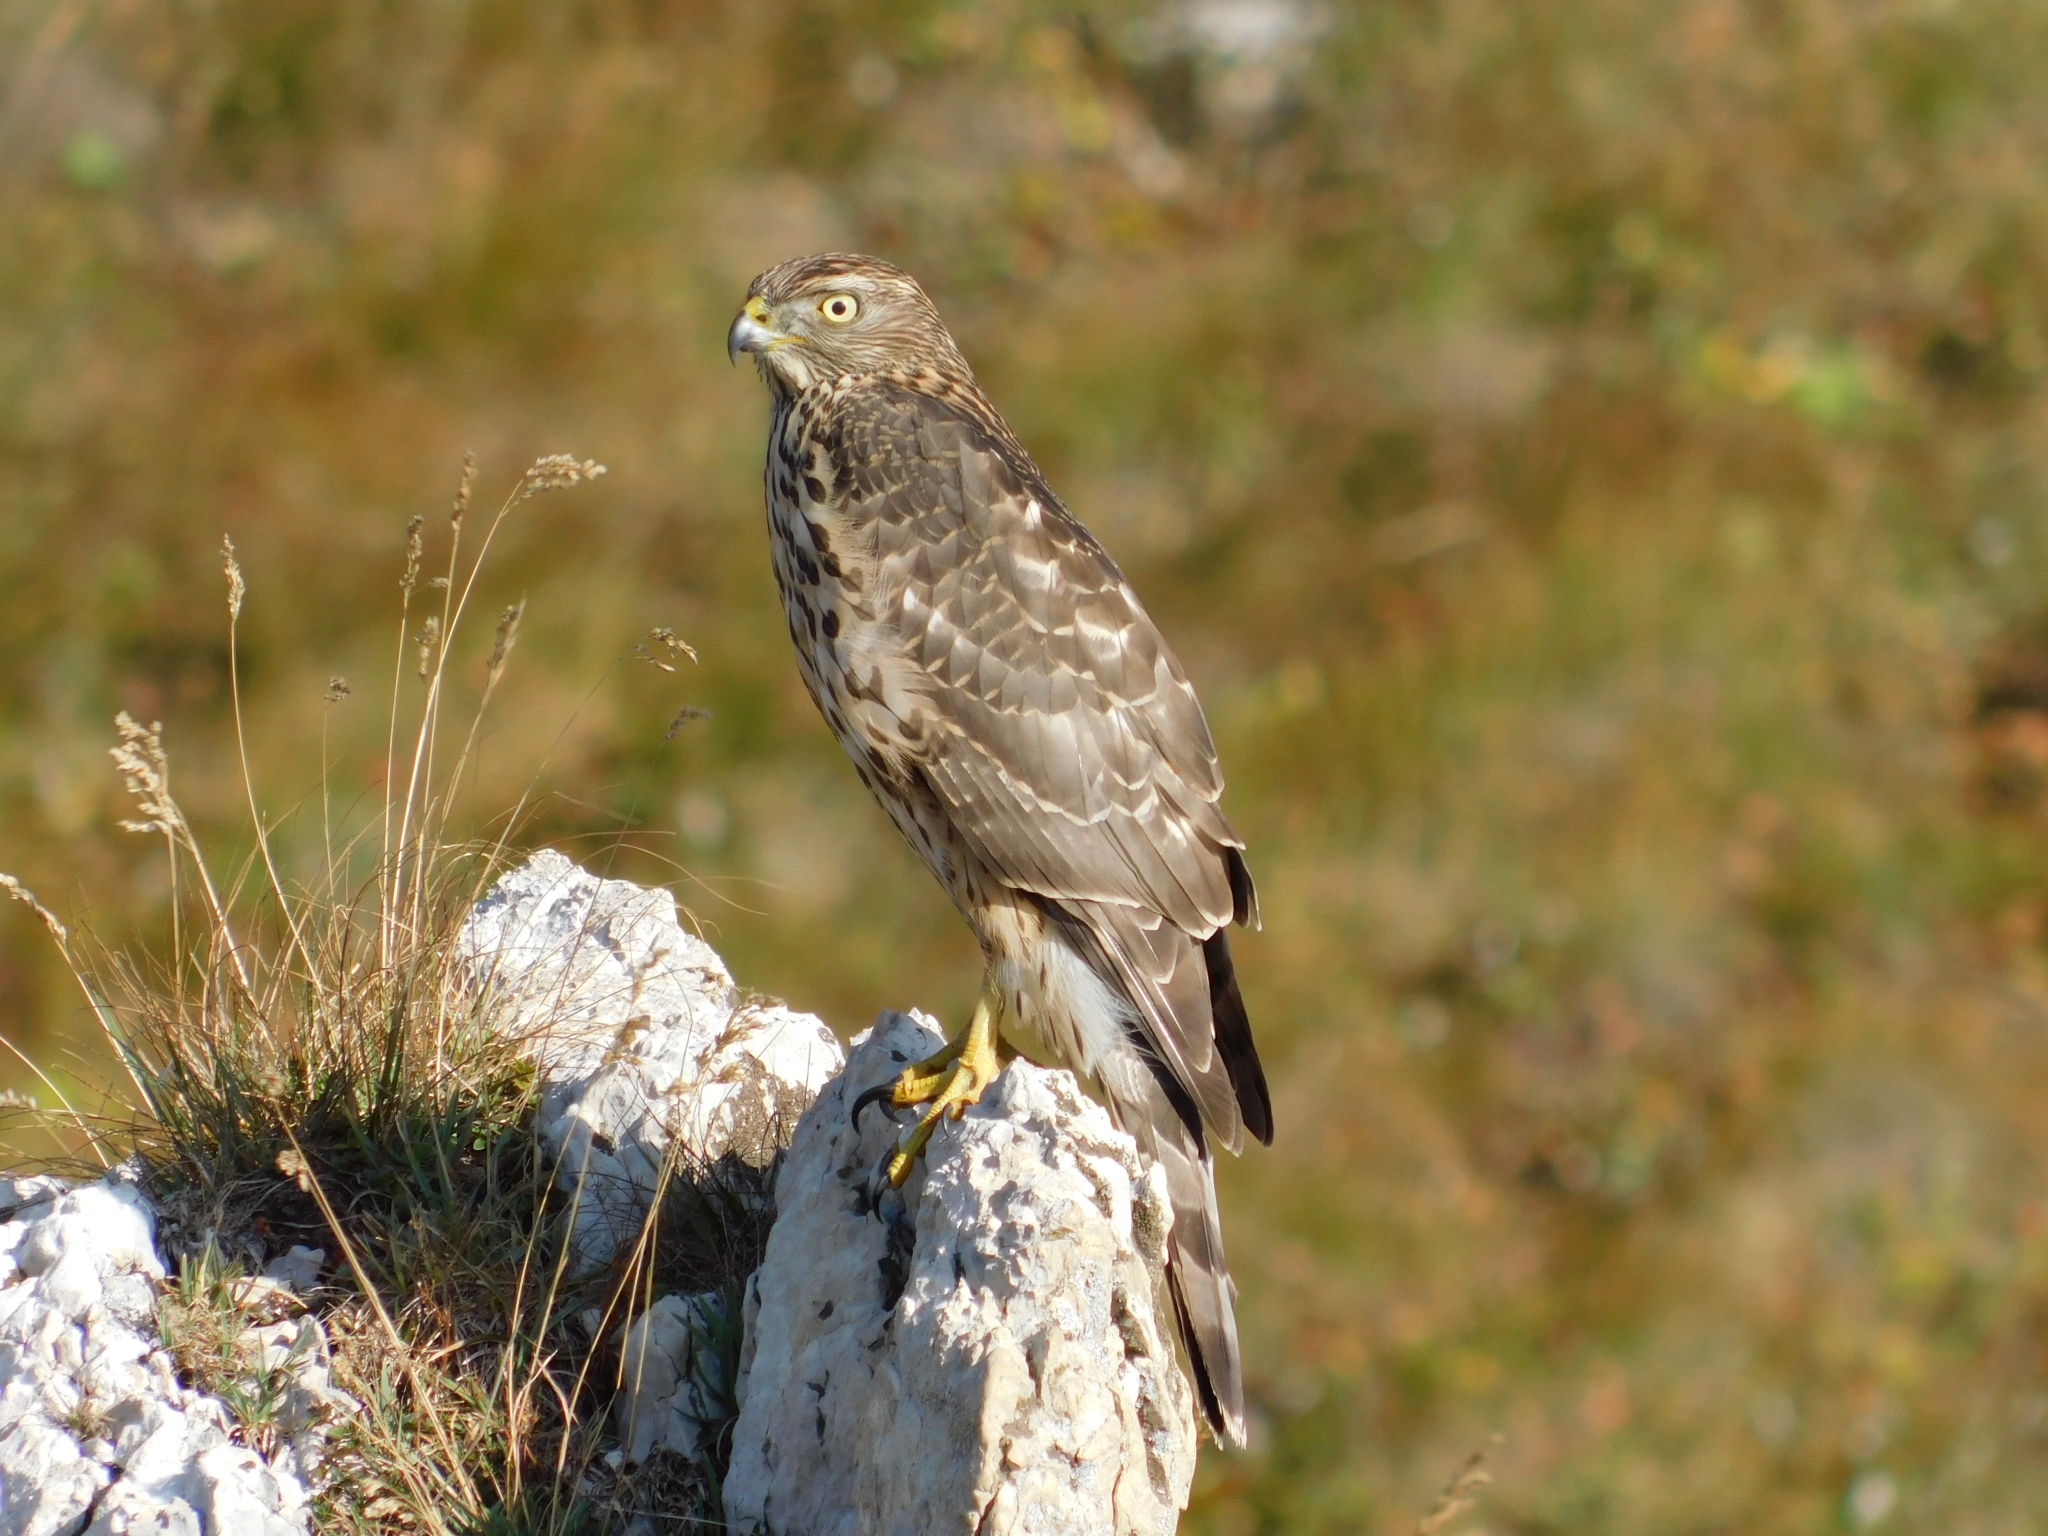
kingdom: Animalia
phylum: Chordata
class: Aves
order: Accipitriformes
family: Accipitridae
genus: Accipiter
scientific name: Accipiter gentilis
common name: Northern goshawk
